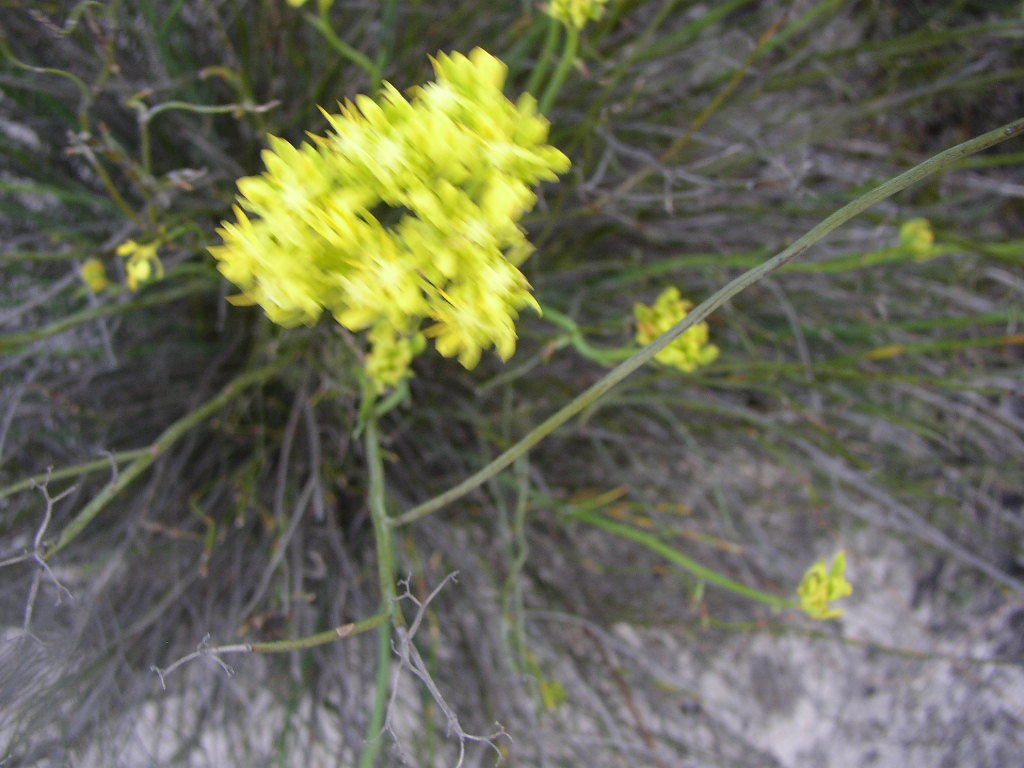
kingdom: Plantae
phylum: Tracheophyta
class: Magnoliopsida
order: Saxifragales
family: Haloragaceae
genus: Glischrocaryon
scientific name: Glischrocaryon aureum
